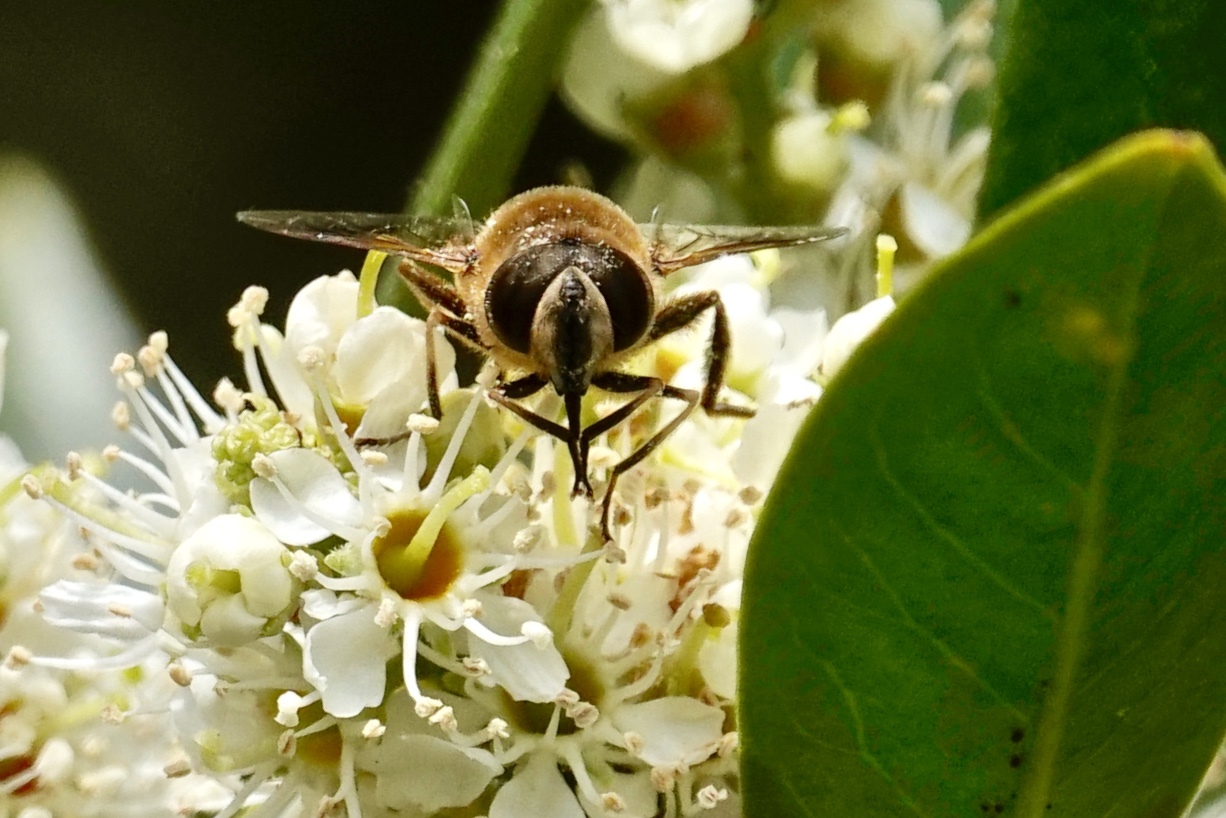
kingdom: Animalia
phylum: Arthropoda
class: Insecta
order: Diptera
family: Syrphidae
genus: Eristalis
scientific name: Eristalis tenax
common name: Drone fly
